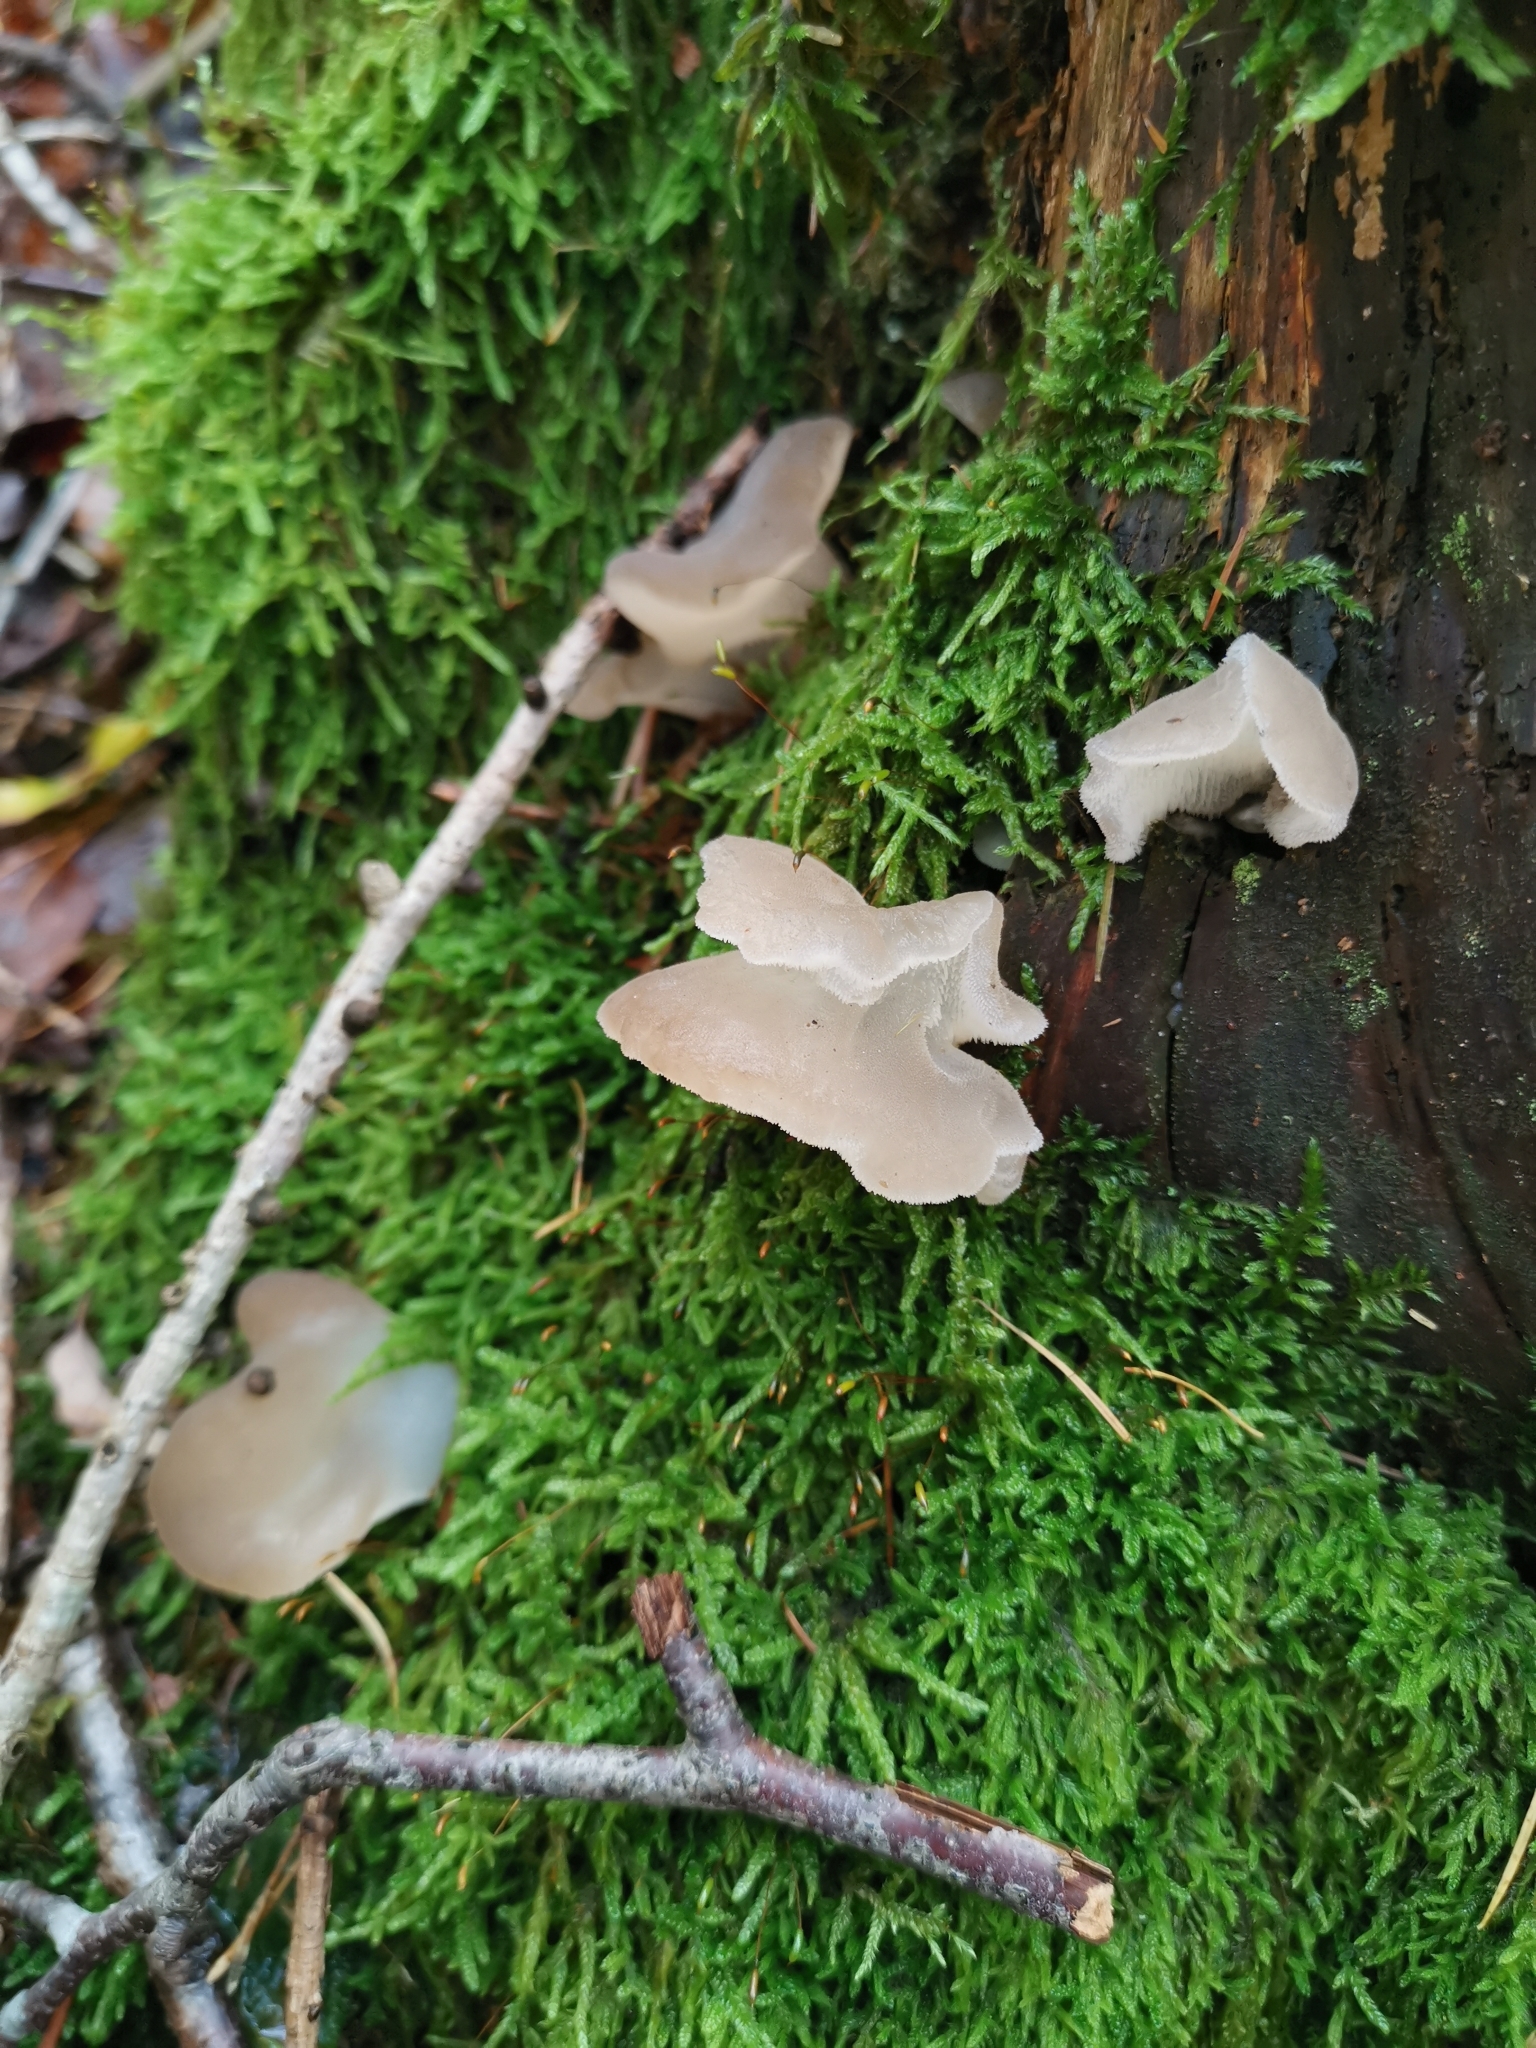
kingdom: Fungi
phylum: Basidiomycota
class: Agaricomycetes
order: Auriculariales
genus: Pseudohydnum
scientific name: Pseudohydnum gelatinosum
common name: Jelly tongue
